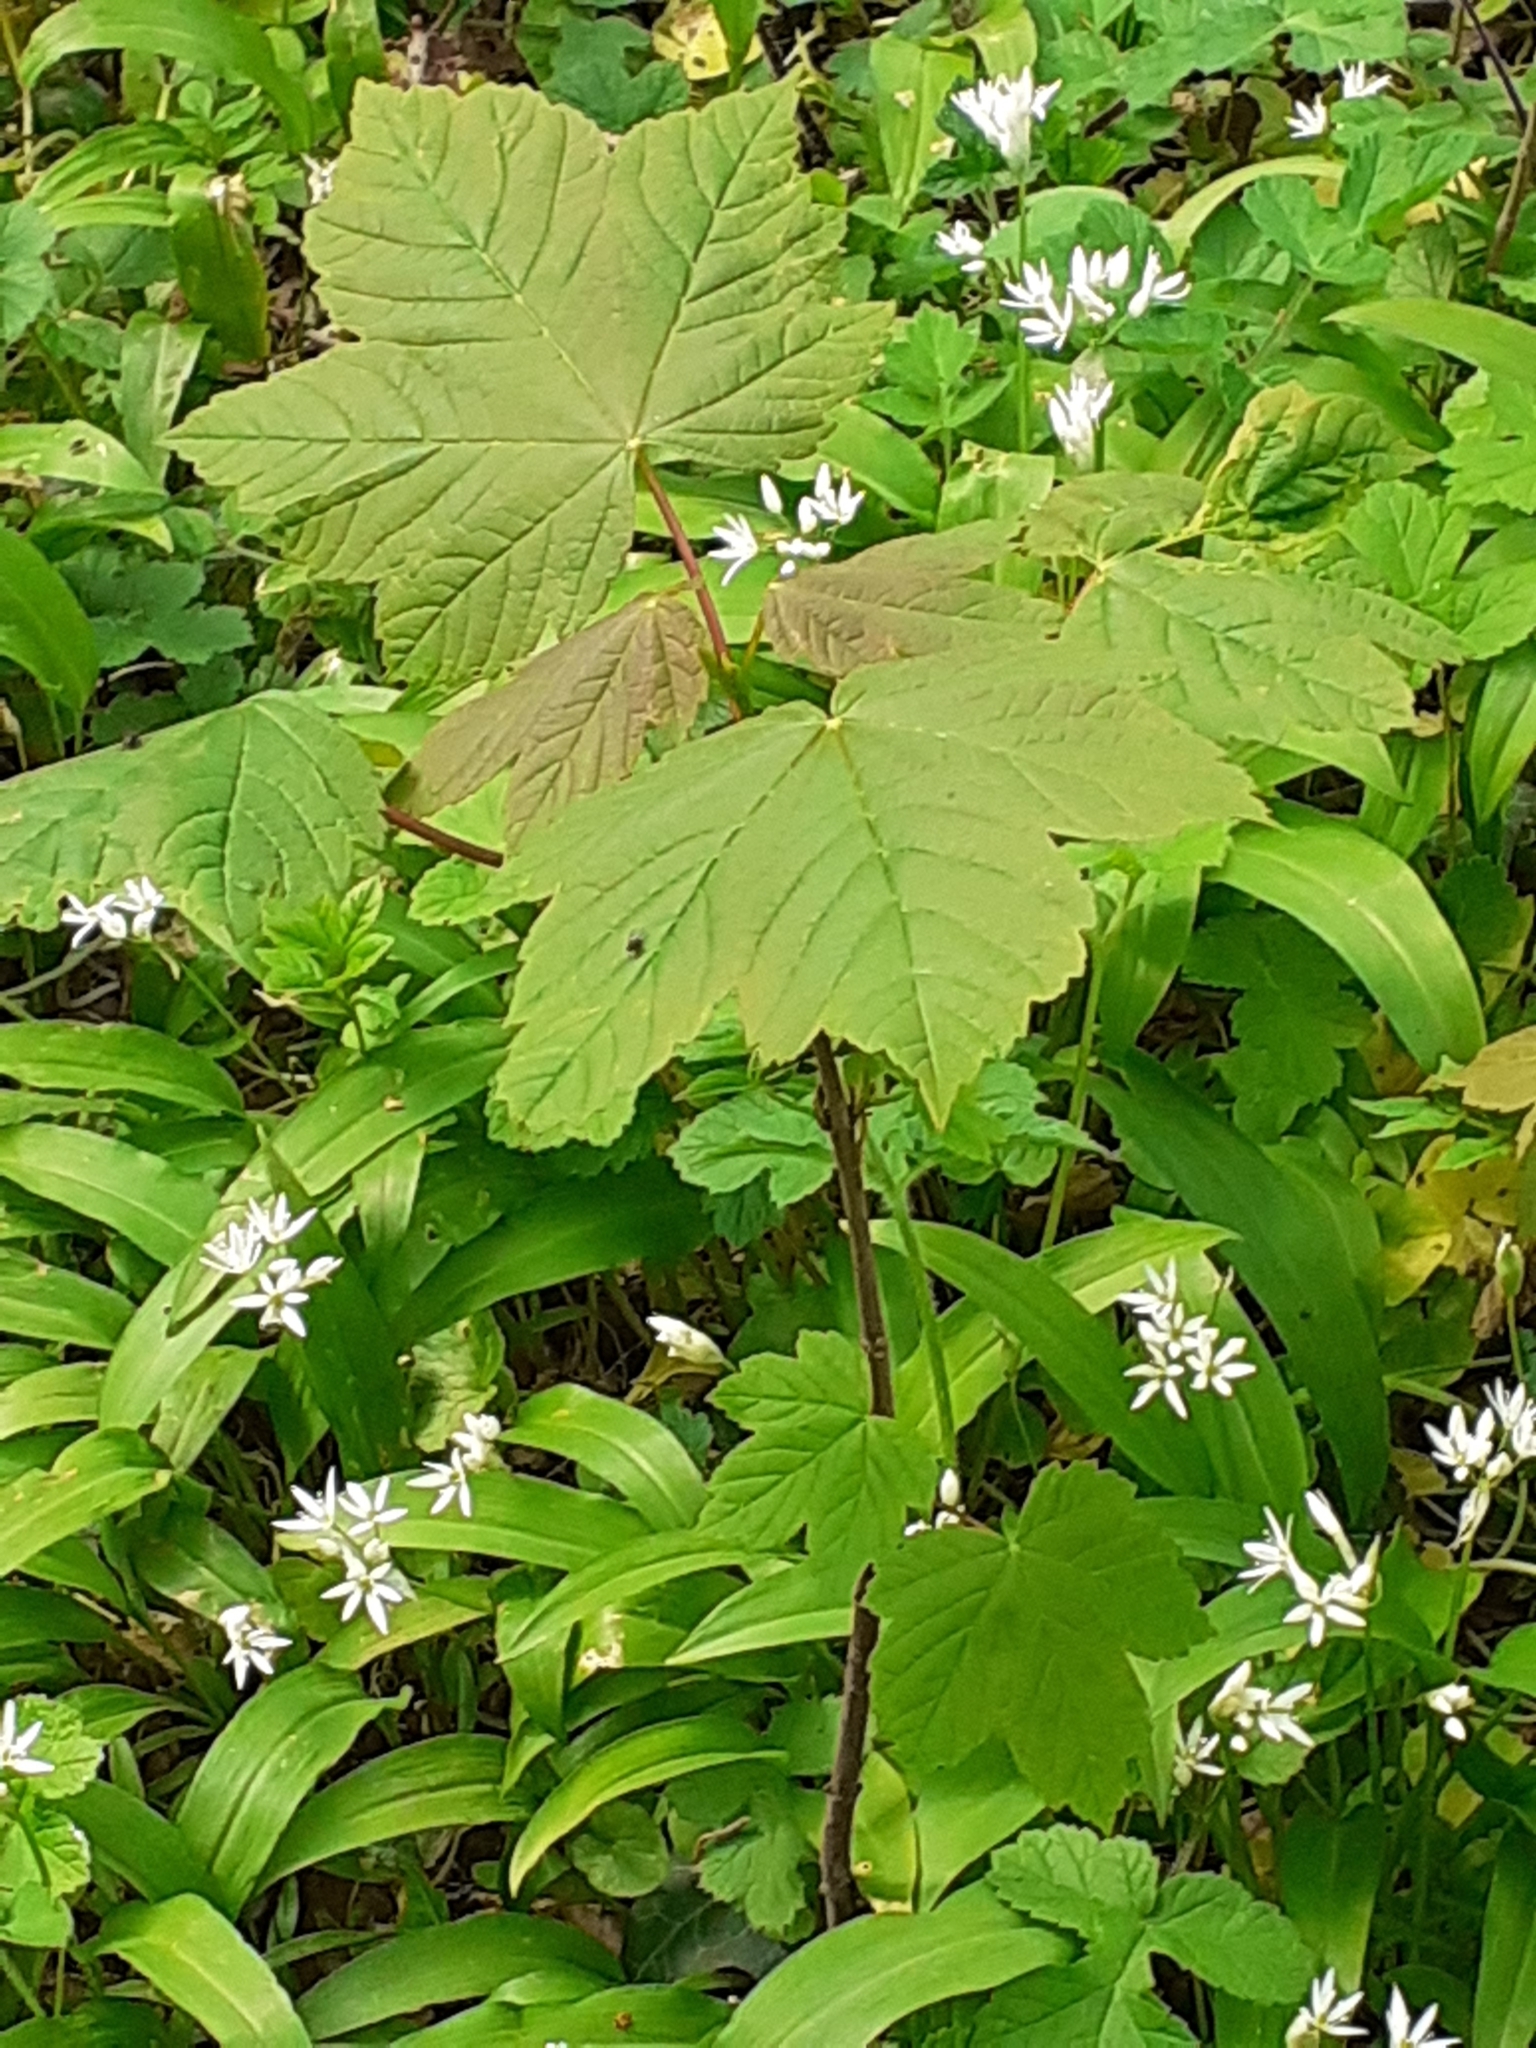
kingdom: Plantae
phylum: Tracheophyta
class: Magnoliopsida
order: Sapindales
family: Sapindaceae
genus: Acer
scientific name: Acer pseudoplatanus
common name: Sycamore
